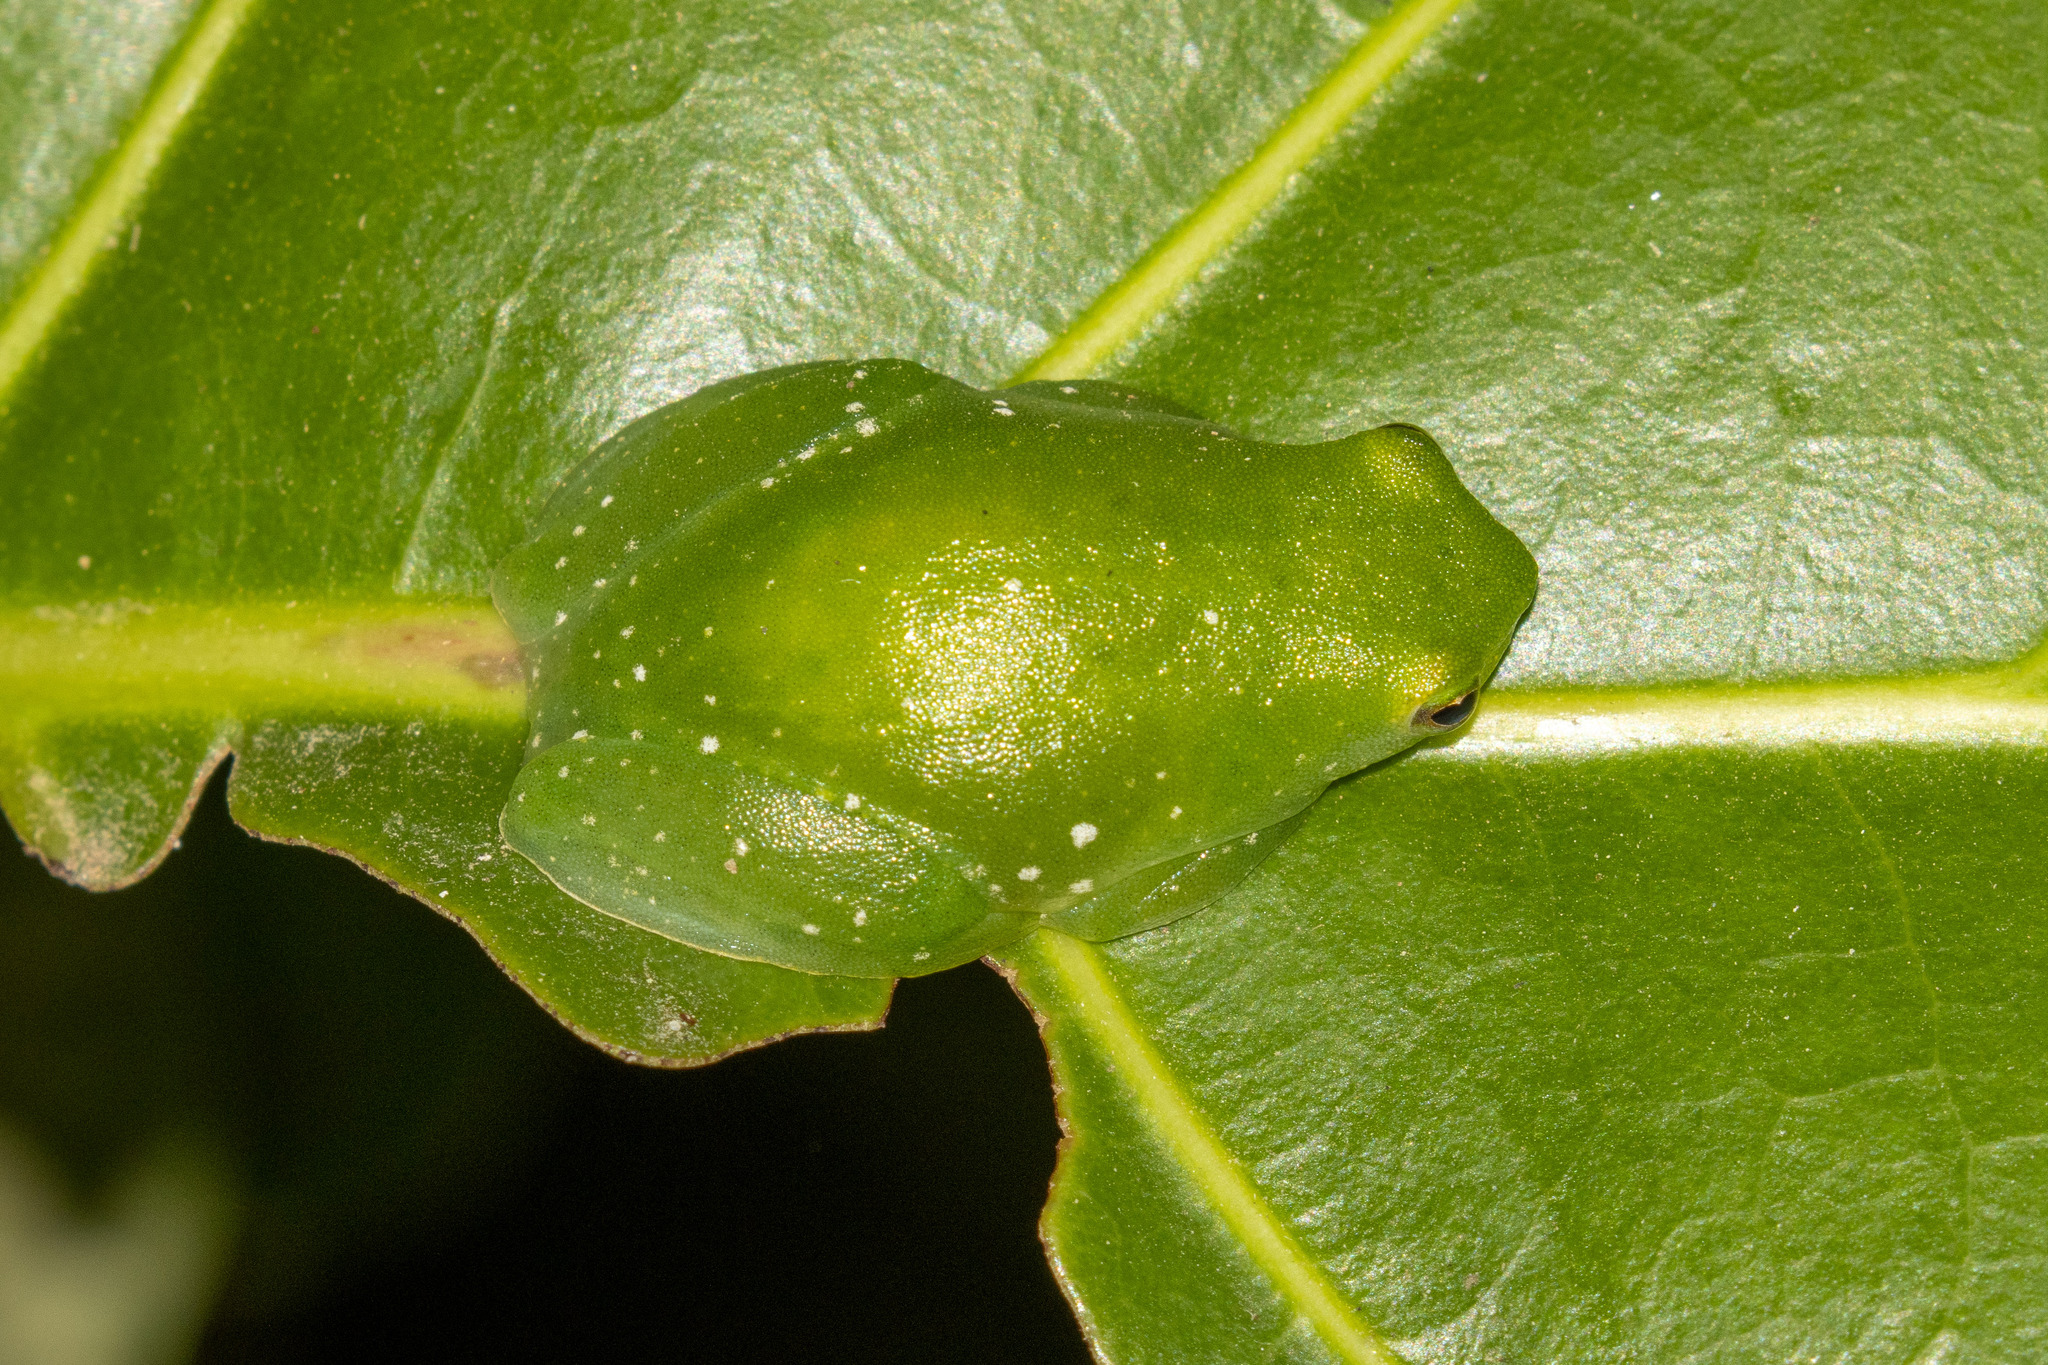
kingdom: Animalia
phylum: Chordata
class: Amphibia
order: Anura
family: Hylidae
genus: Sphaenorhynchus
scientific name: Sphaenorhynchus planicola
